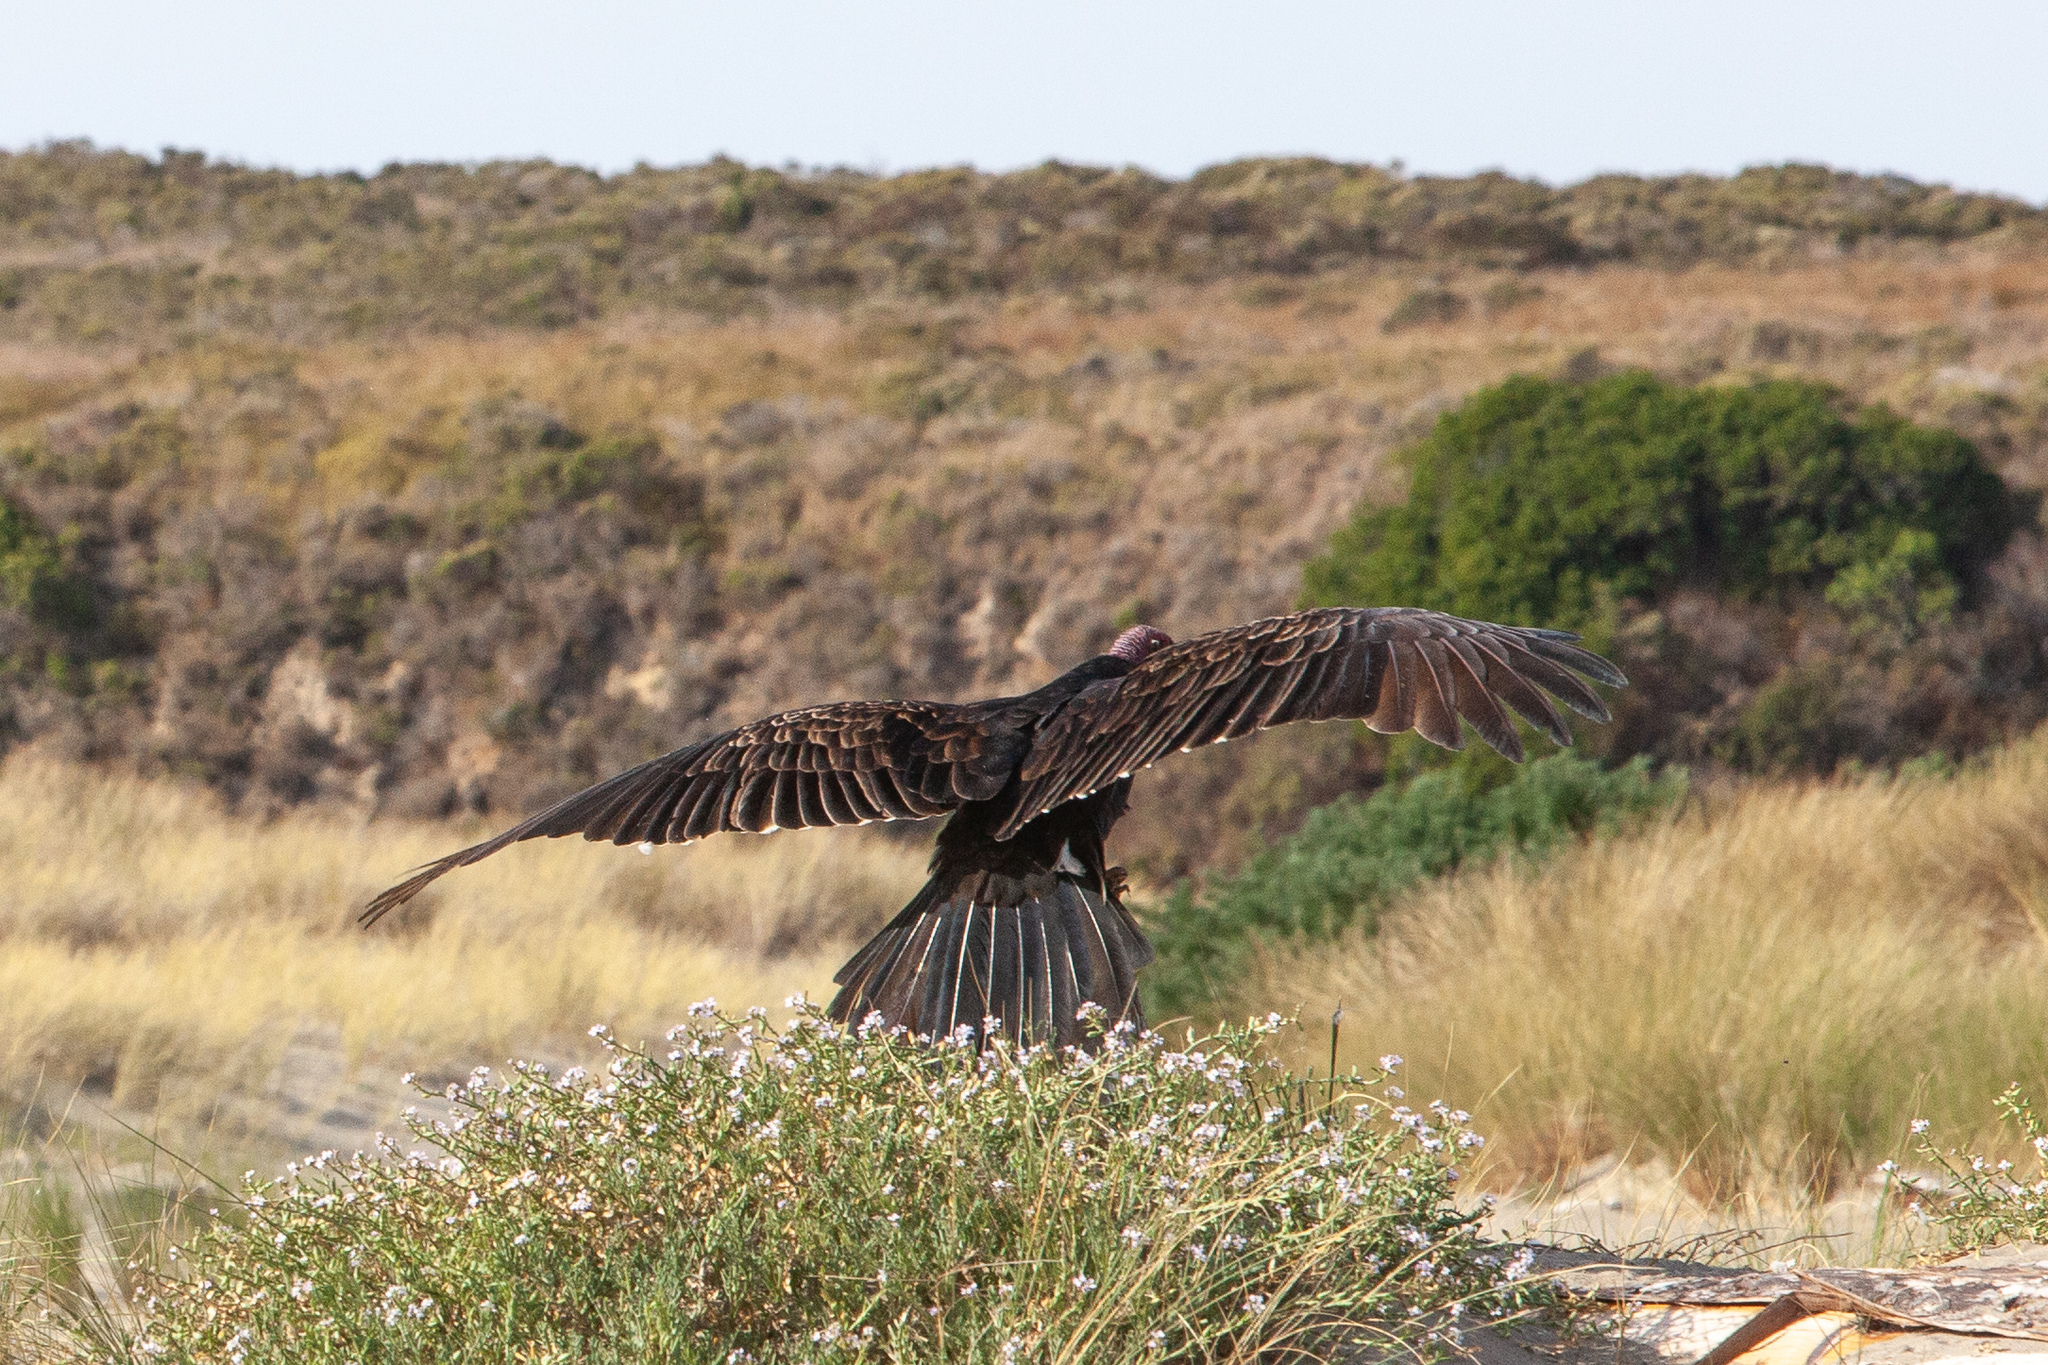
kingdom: Animalia
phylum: Chordata
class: Aves
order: Accipitriformes
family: Cathartidae
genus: Cathartes
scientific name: Cathartes aura
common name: Turkey vulture
